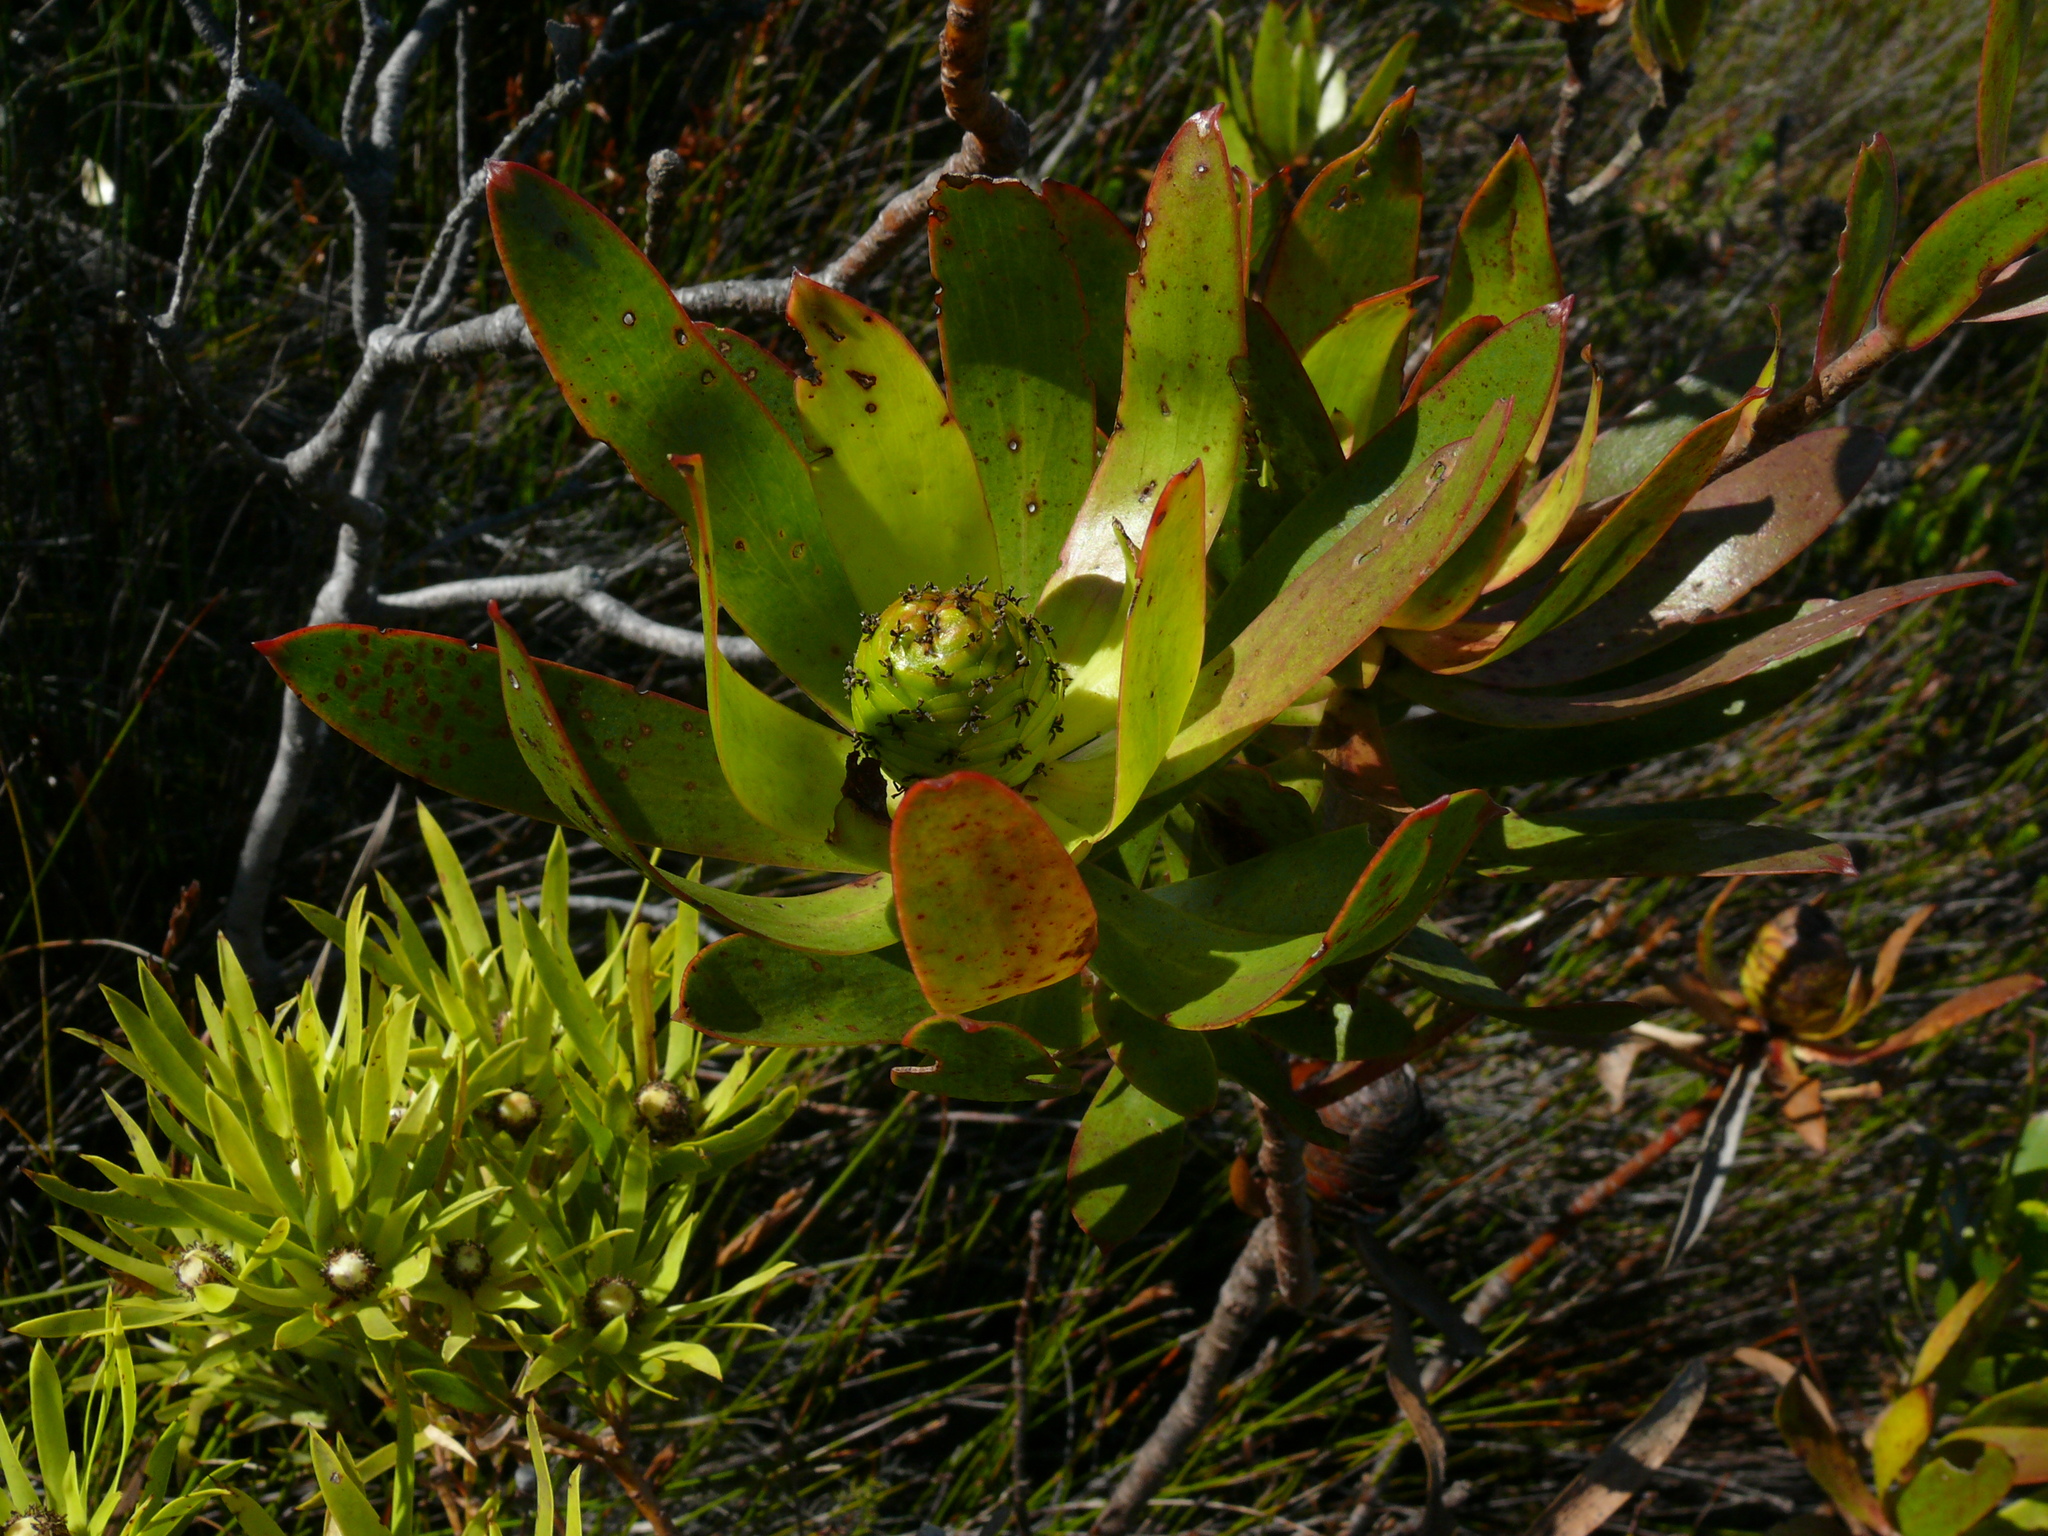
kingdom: Plantae
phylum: Tracheophyta
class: Magnoliopsida
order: Proteales
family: Proteaceae
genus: Leucadendron
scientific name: Leucadendron gandogeri
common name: Broad-leaf conebush
